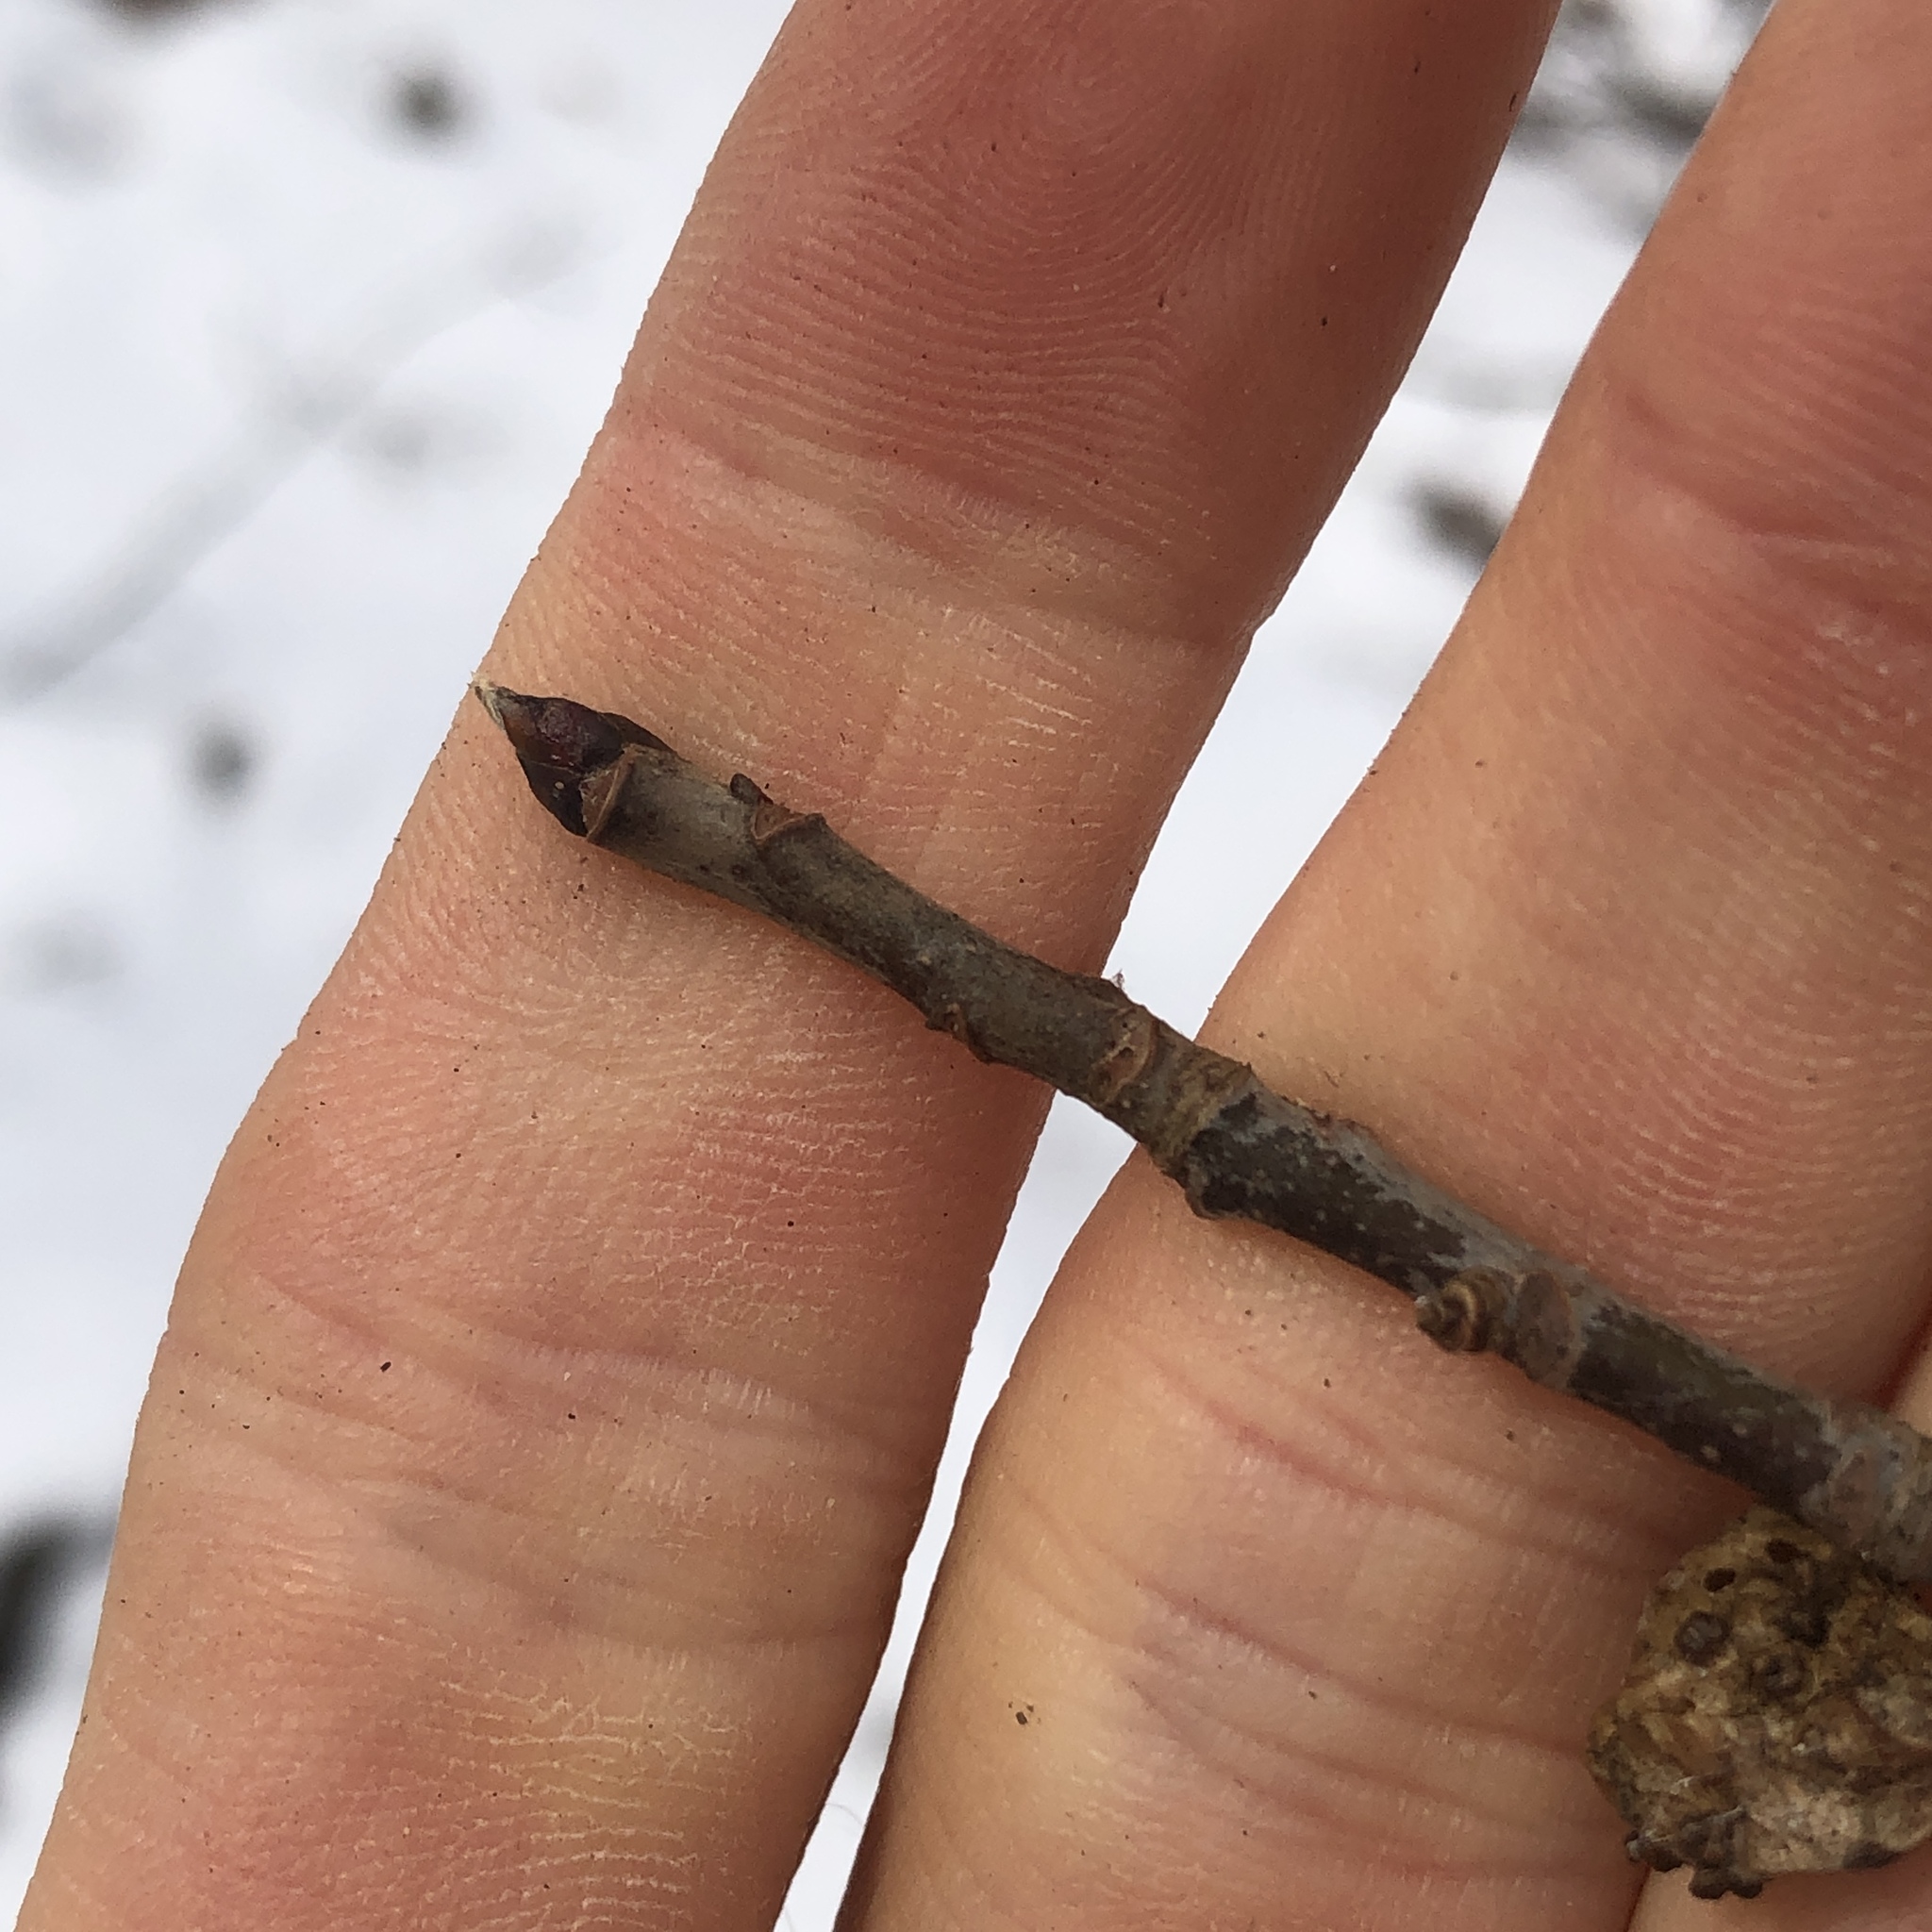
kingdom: Plantae
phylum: Tracheophyta
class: Magnoliopsida
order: Cornales
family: Nyssaceae
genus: Nyssa
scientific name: Nyssa sylvatica
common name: Black tupelo
